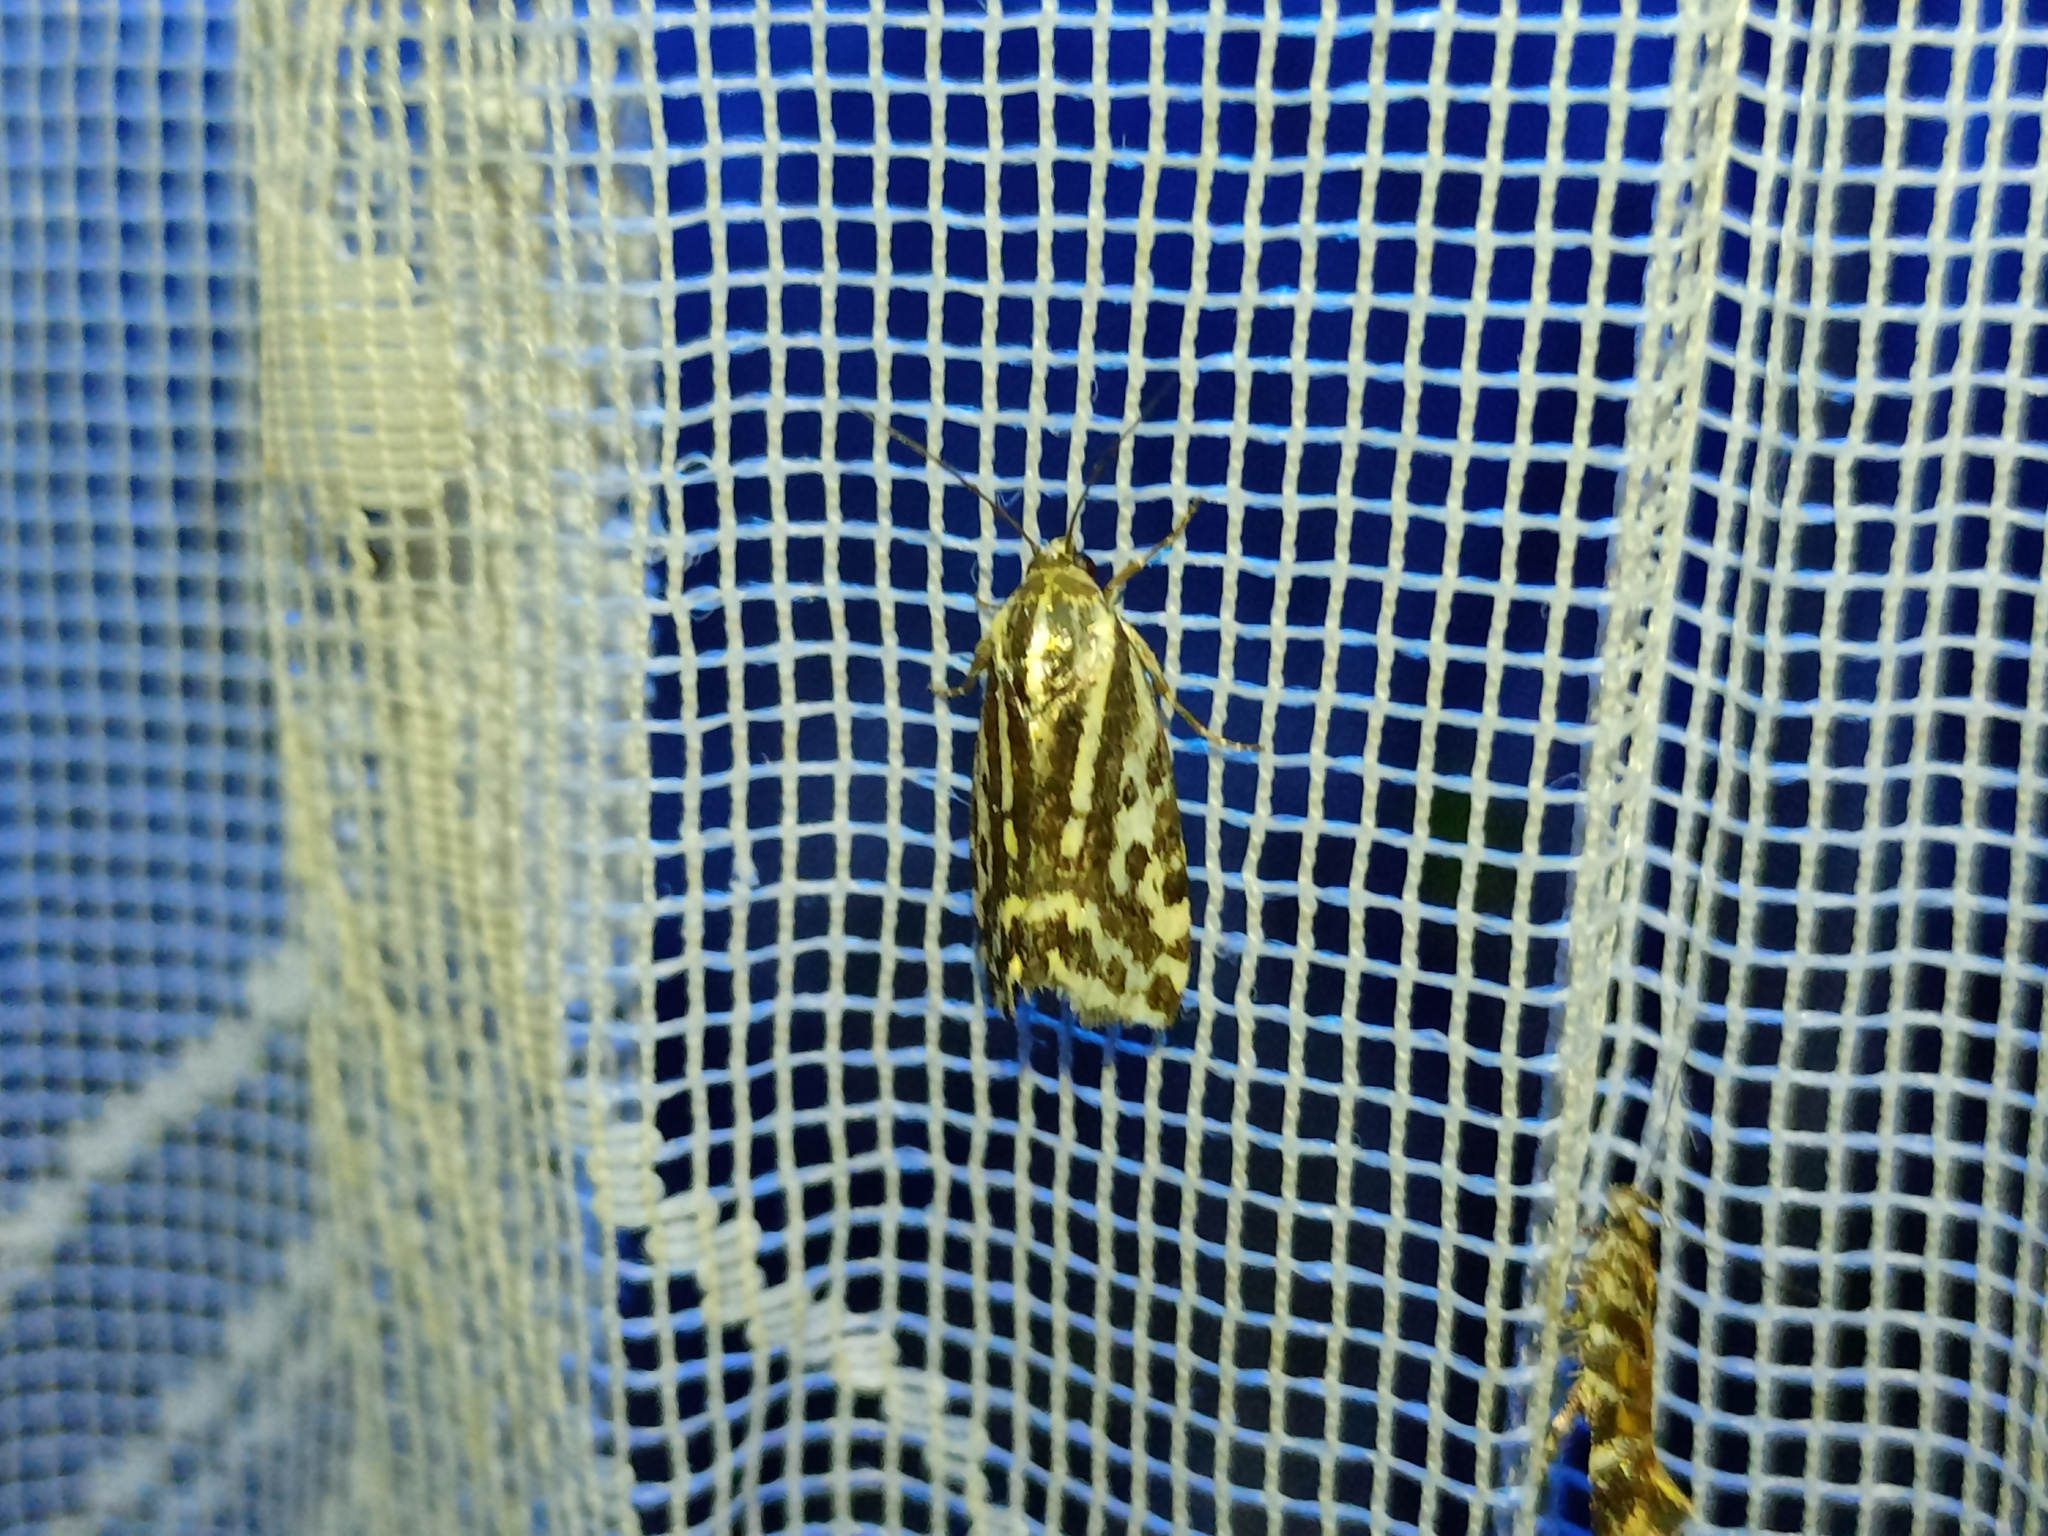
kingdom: Animalia
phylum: Arthropoda
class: Insecta
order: Lepidoptera
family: Noctuidae
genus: Acontia
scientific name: Acontia trabealis
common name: Spotted sulphur
